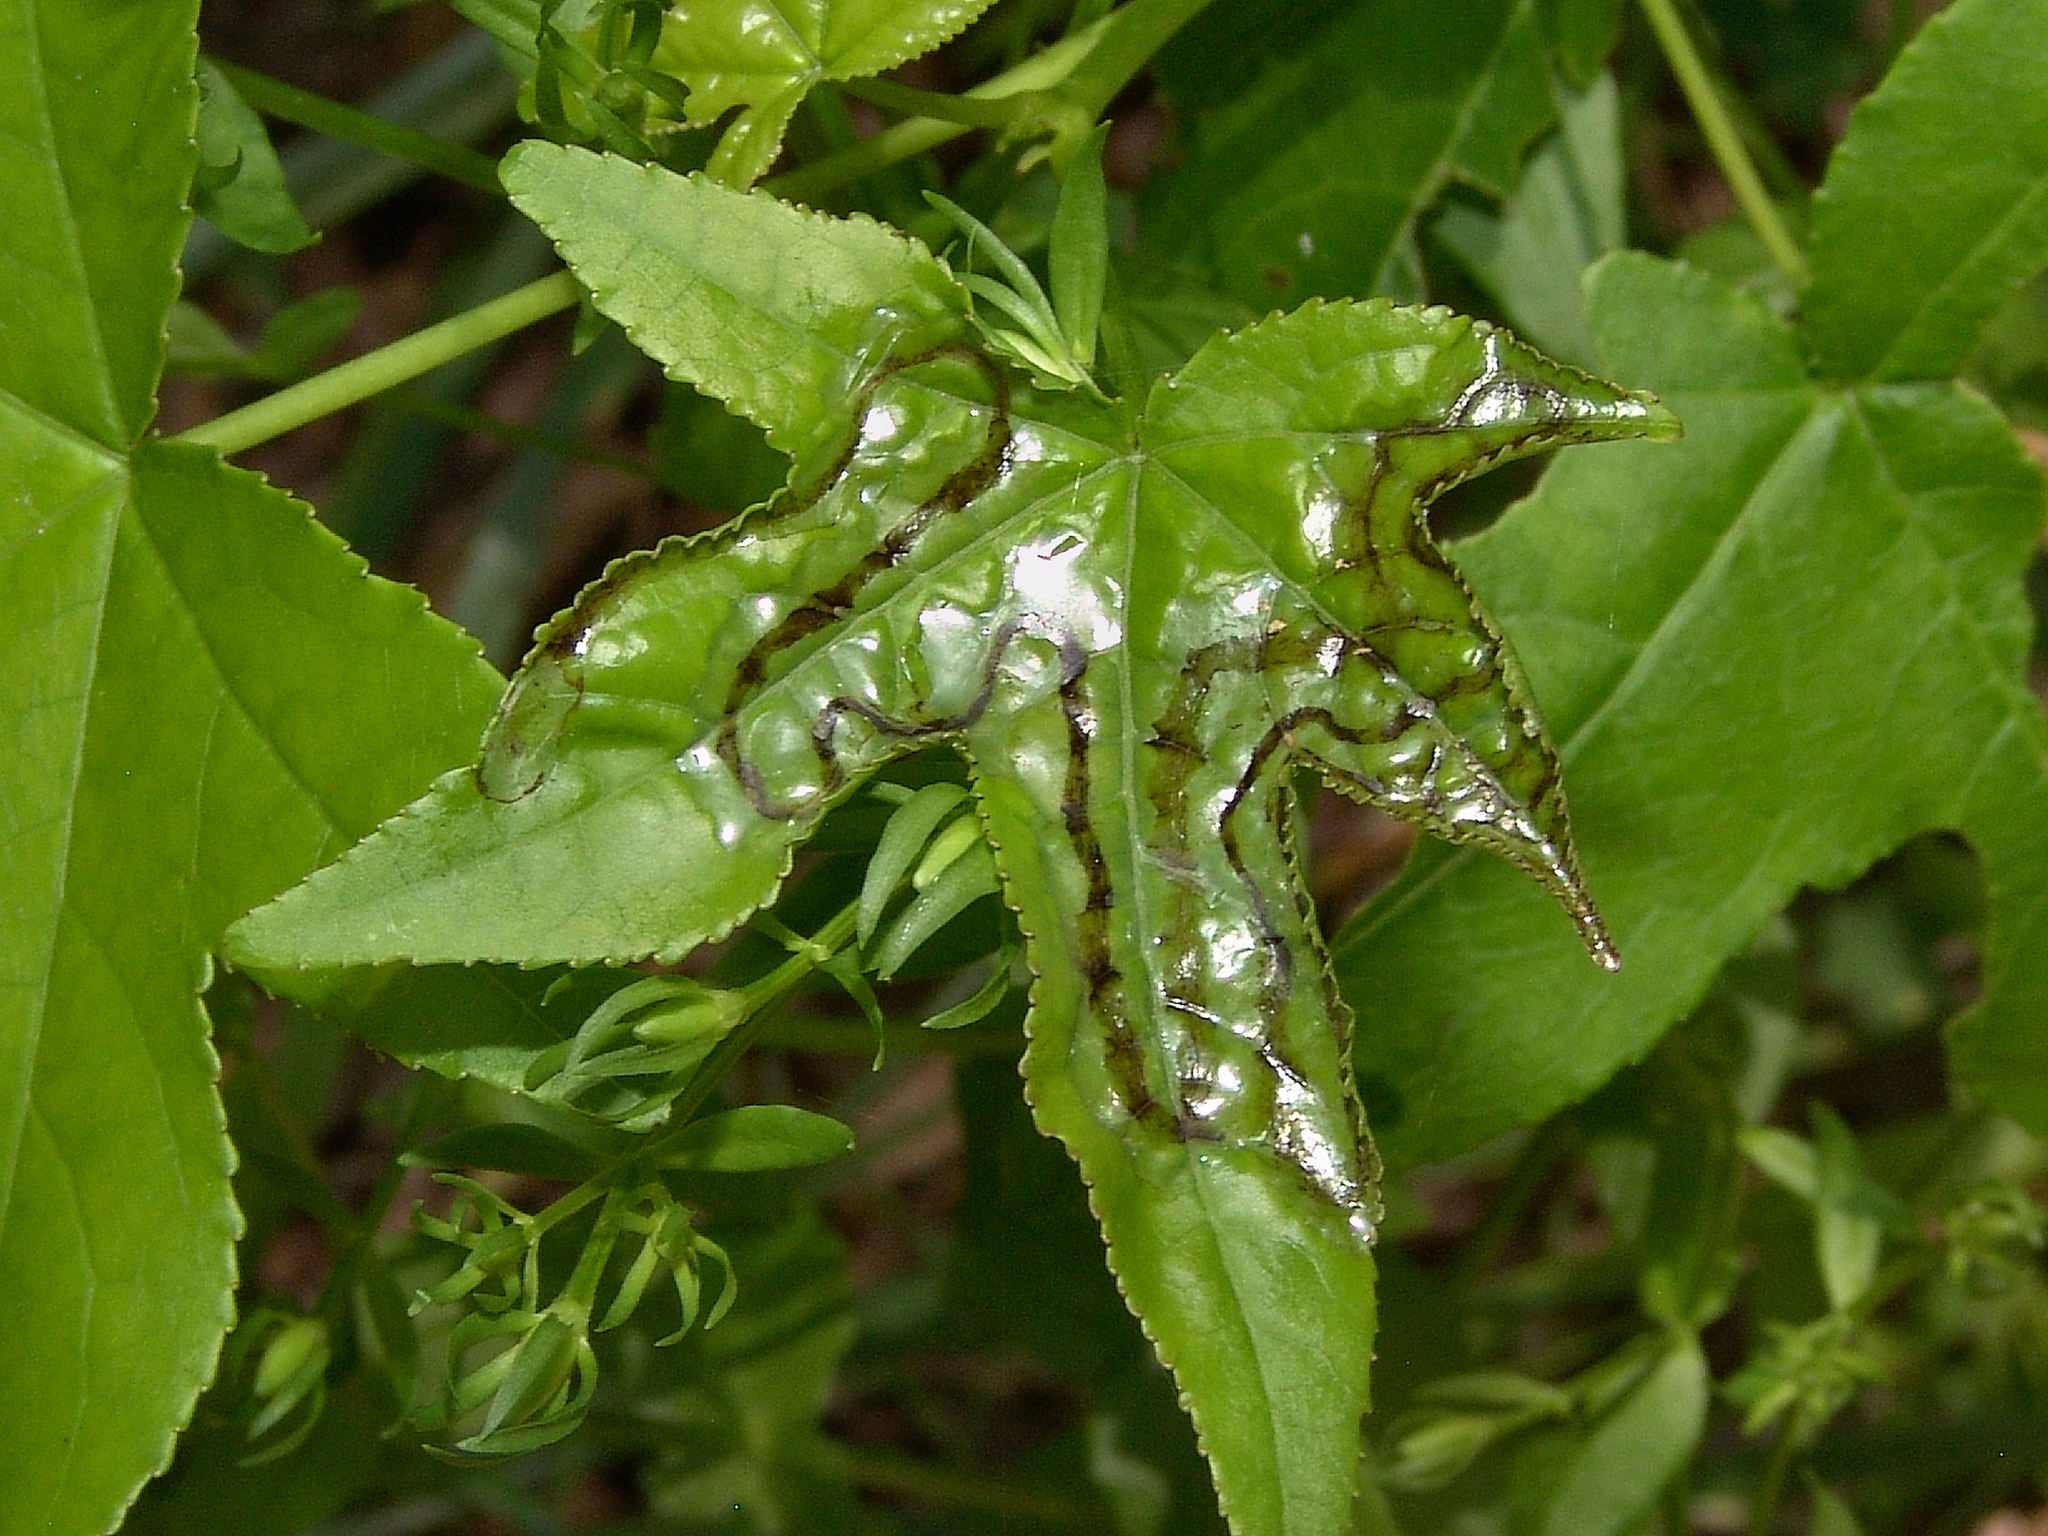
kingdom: Plantae
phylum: Tracheophyta
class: Magnoliopsida
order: Saxifragales
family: Altingiaceae
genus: Liquidambar
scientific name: Liquidambar styraciflua
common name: Sweet gum
